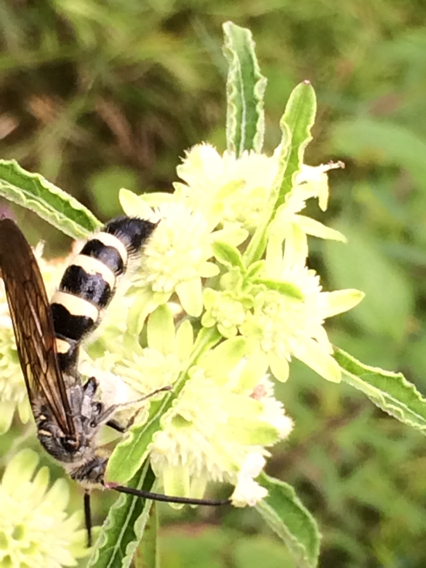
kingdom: Animalia
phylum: Arthropoda
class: Insecta
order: Hymenoptera
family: Scoliidae
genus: Dielis
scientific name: Dielis
